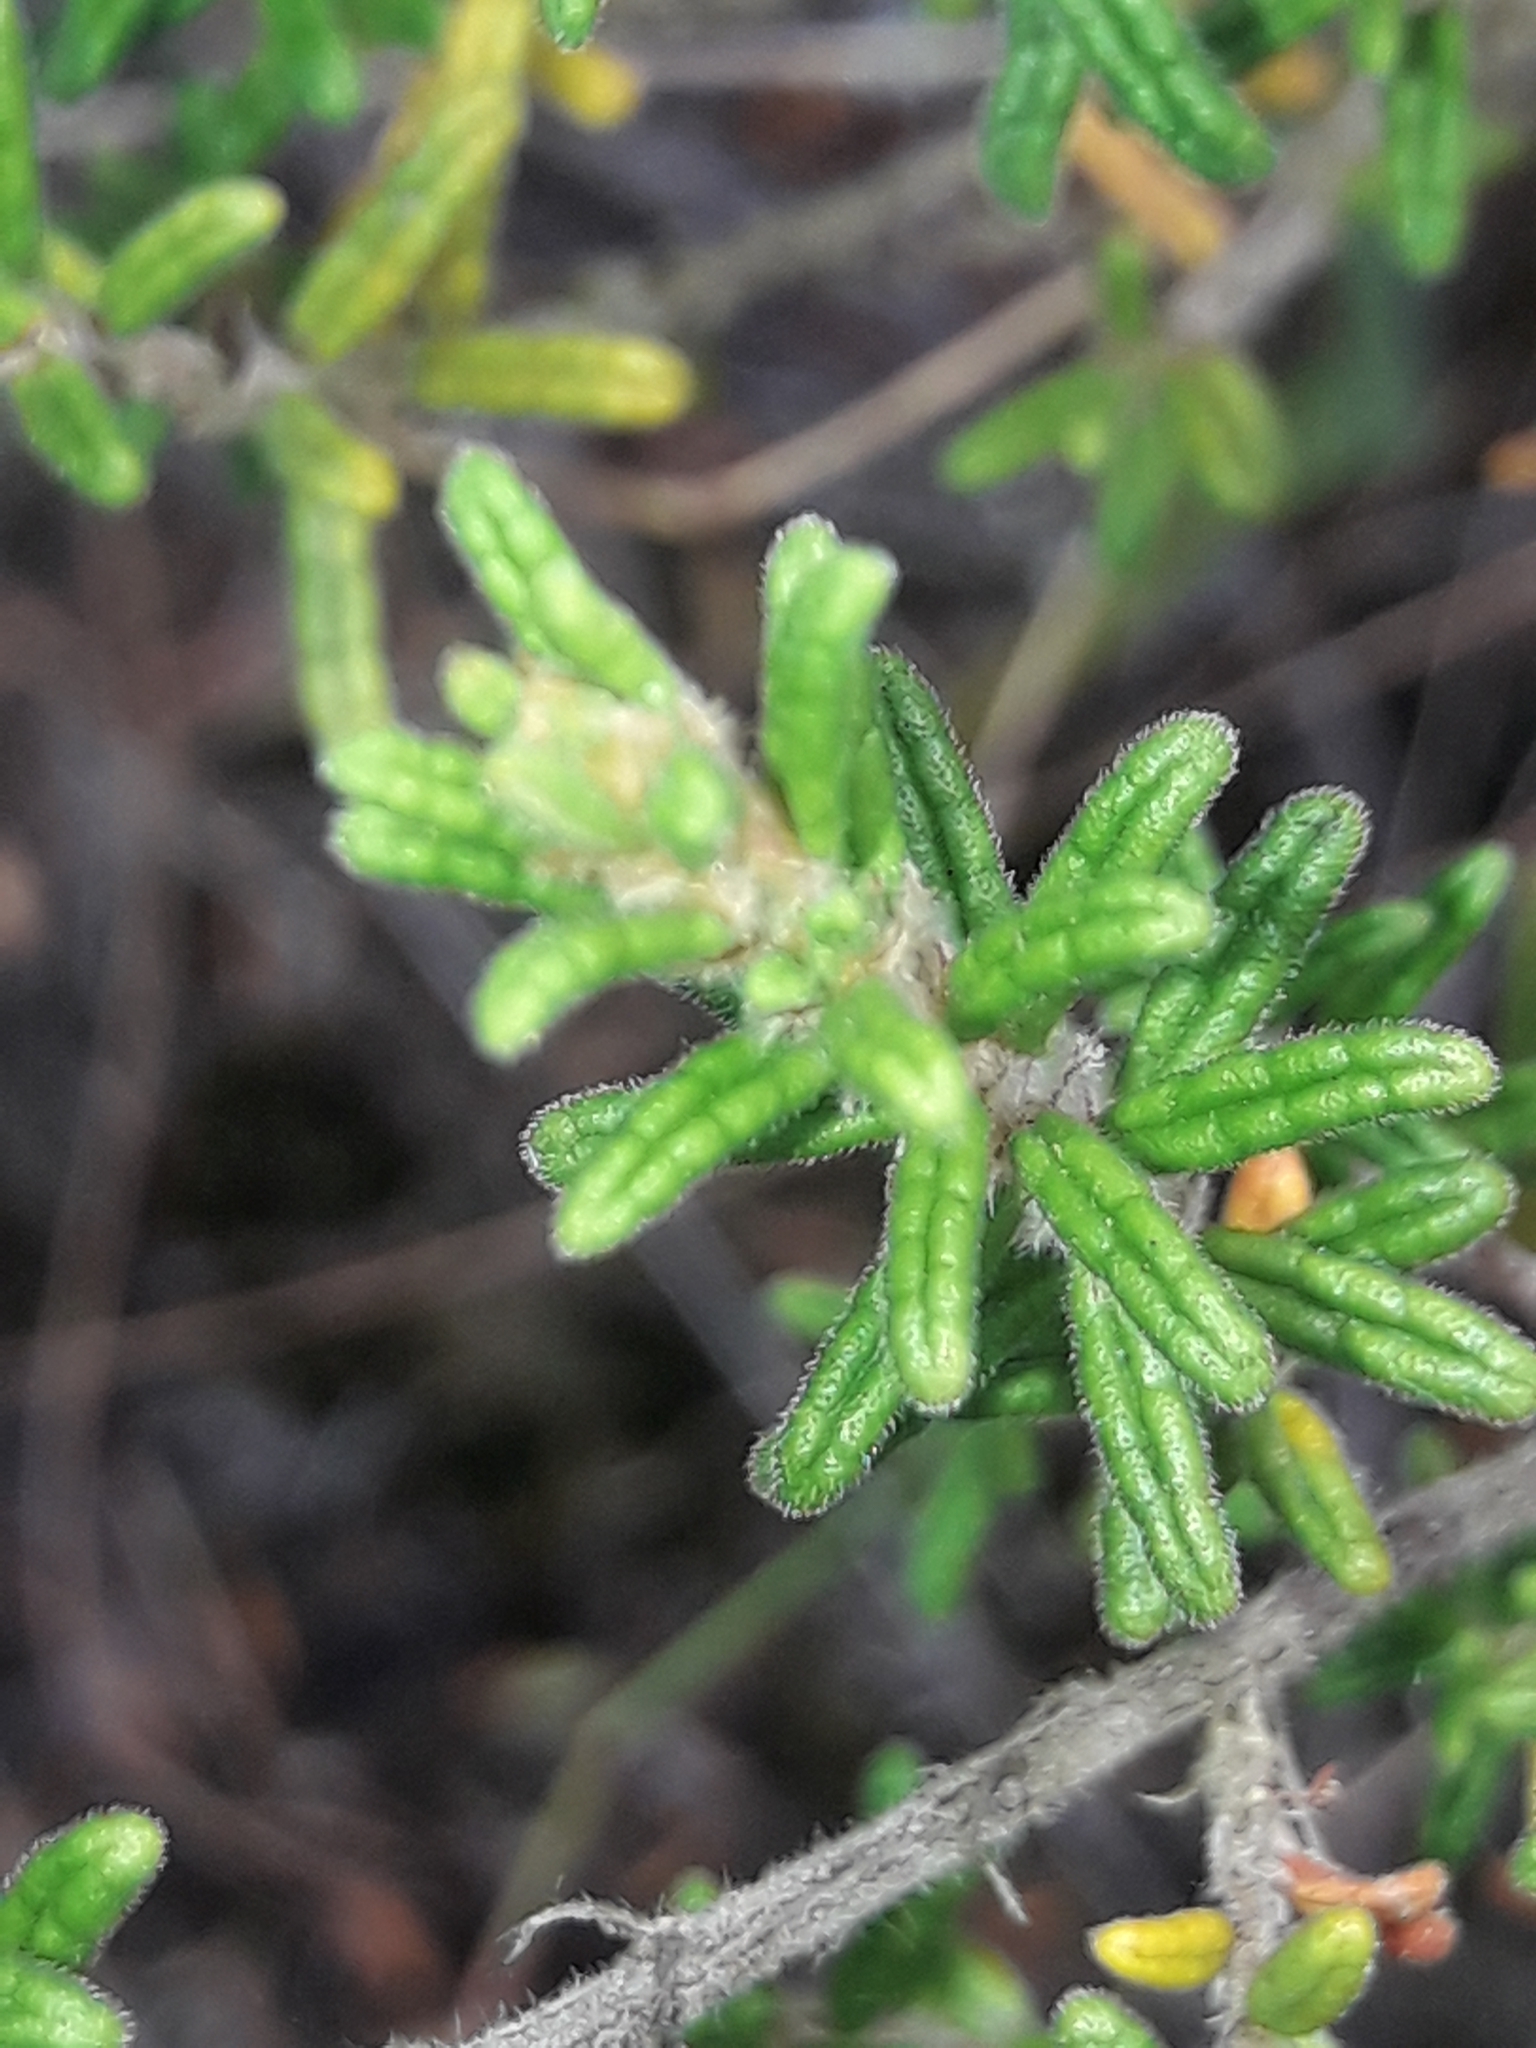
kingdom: Plantae
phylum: Tracheophyta
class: Magnoliopsida
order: Rosales
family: Rhamnaceae
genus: Pomaderris
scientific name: Pomaderris amoena
